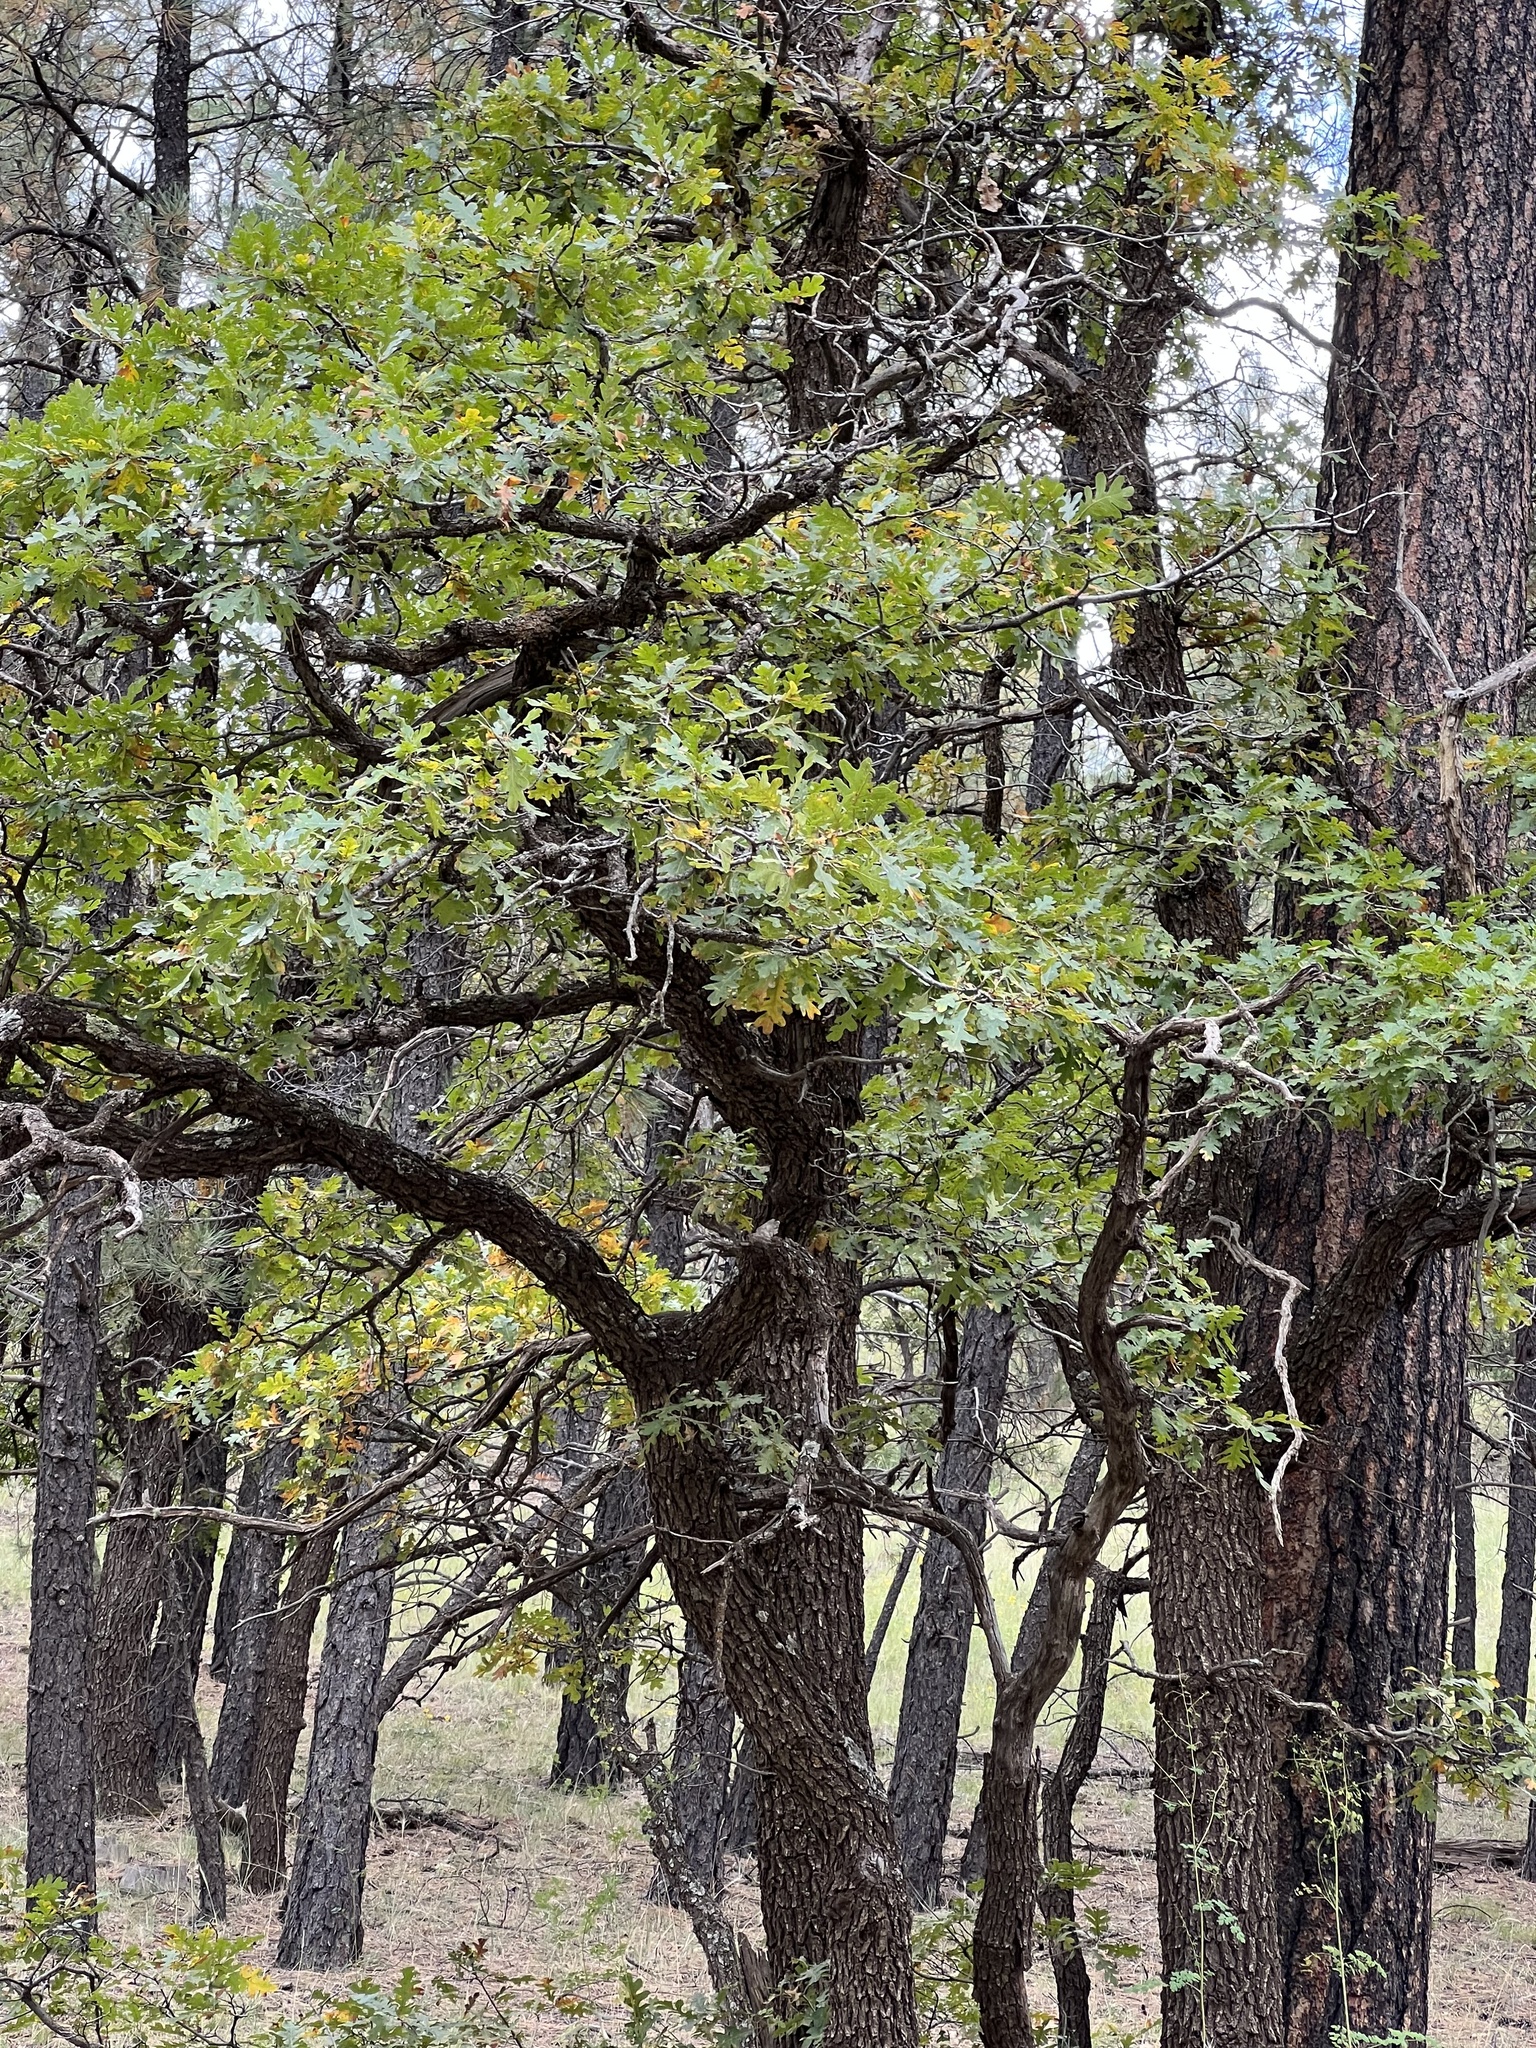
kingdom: Plantae
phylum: Tracheophyta
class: Magnoliopsida
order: Fagales
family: Fagaceae
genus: Quercus
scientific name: Quercus gambelii
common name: Gambel oak
